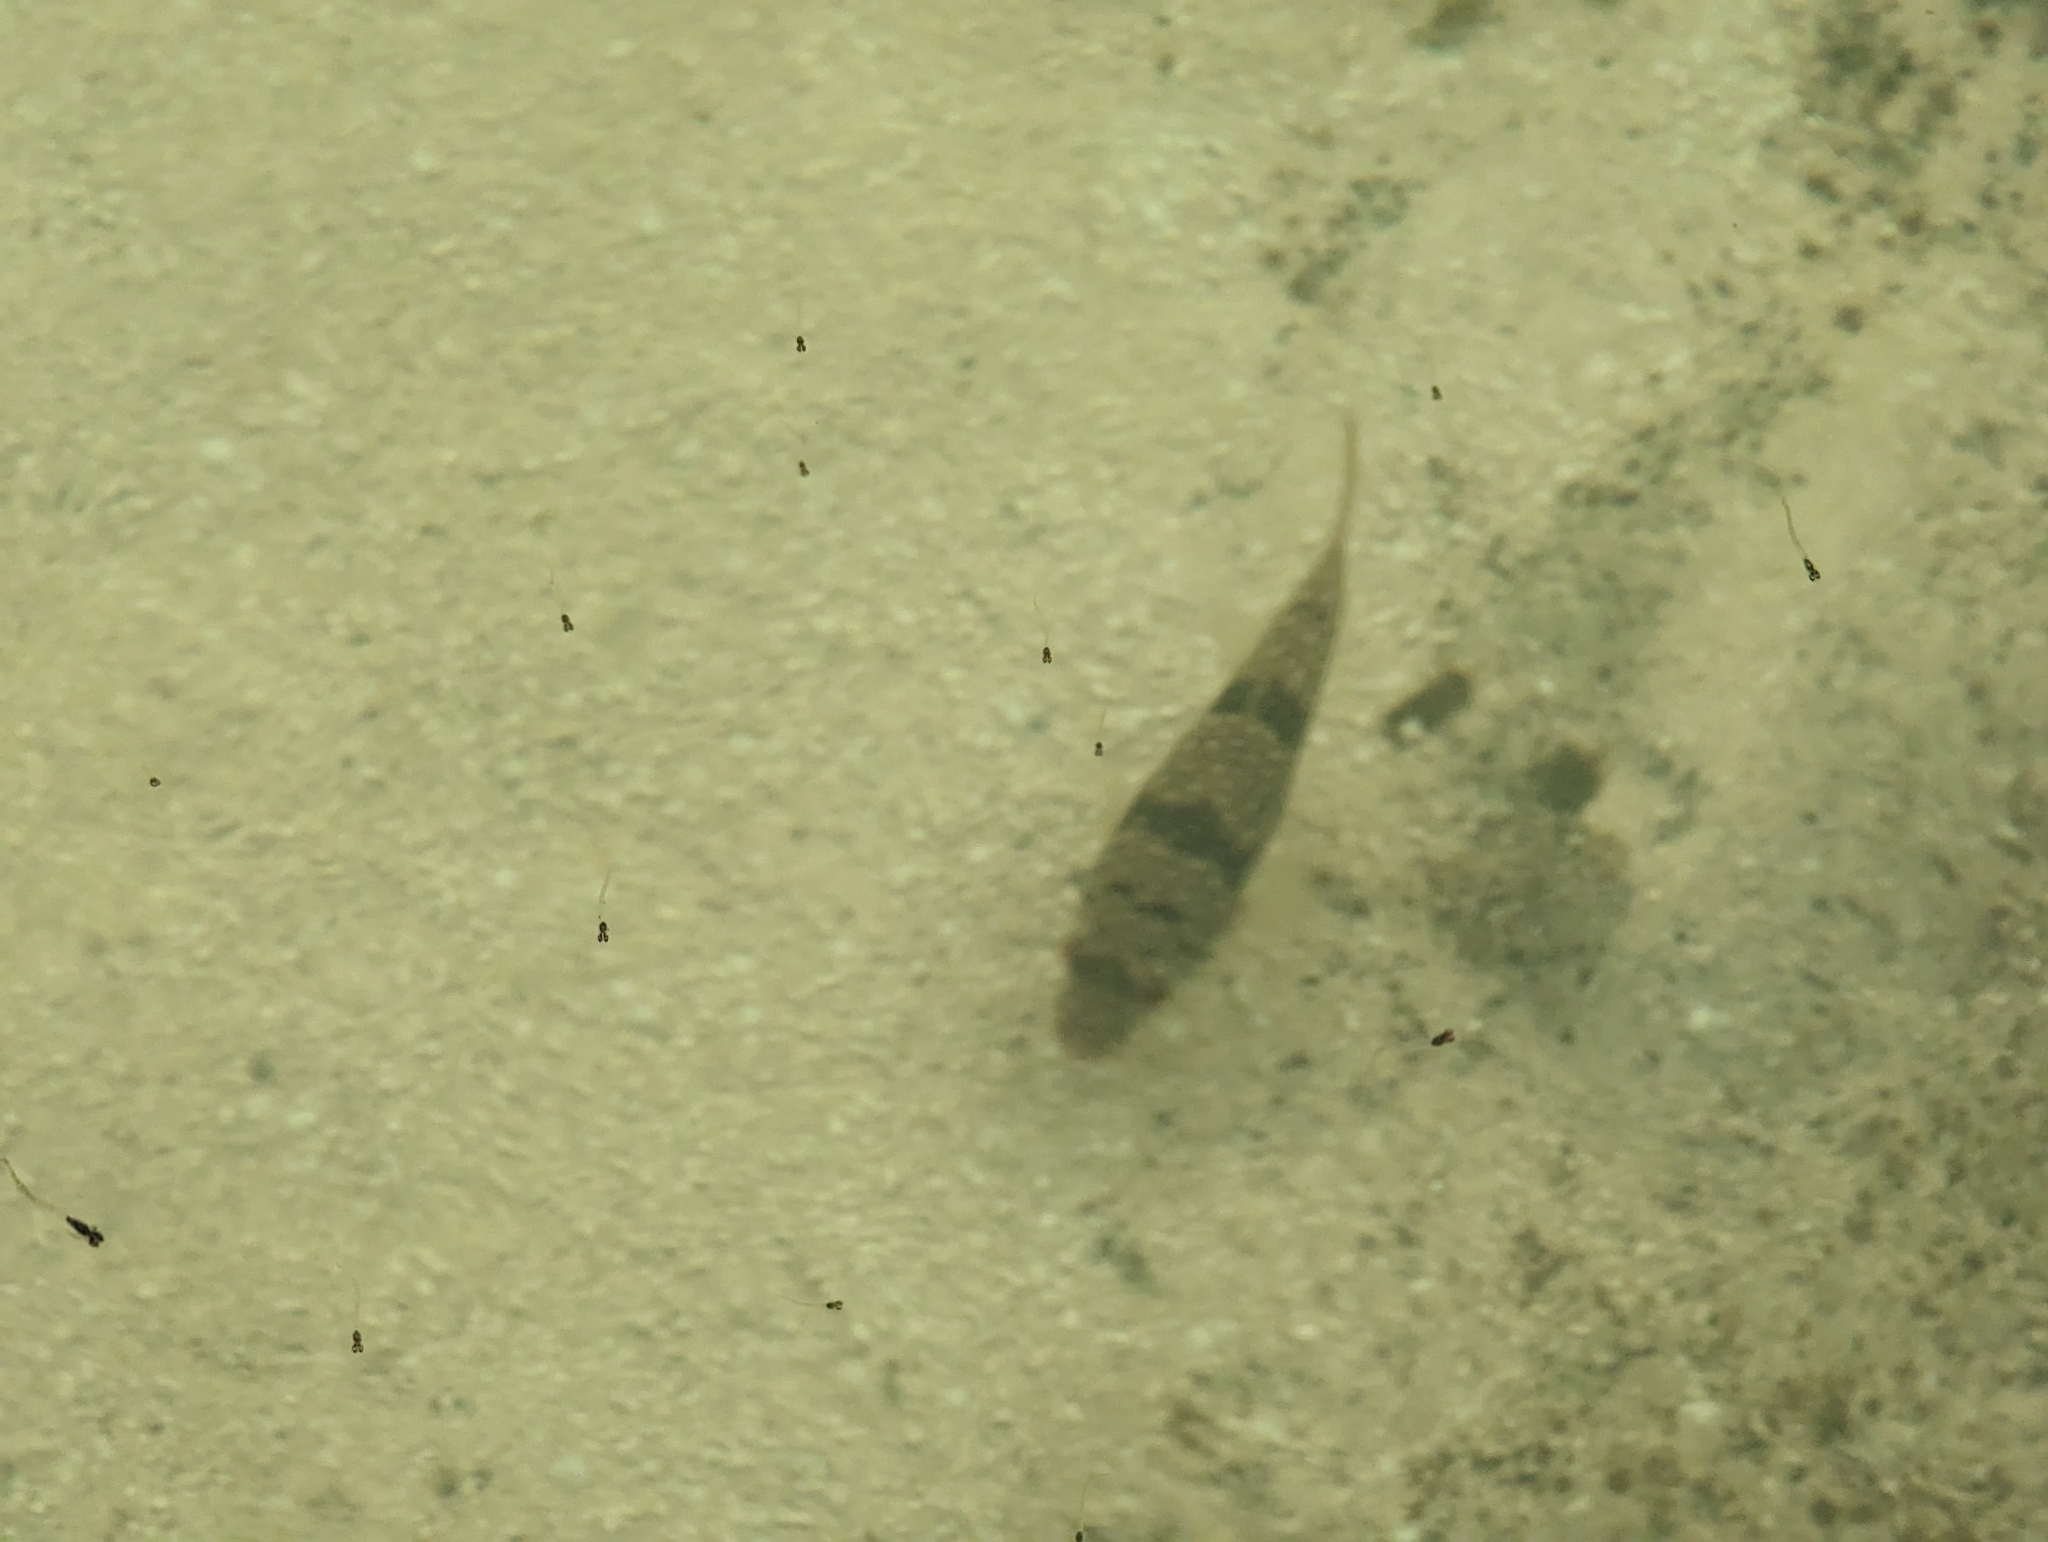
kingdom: Animalia
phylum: Chordata
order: Tetraodontiformes
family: Tetraodontidae
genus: Torquigener
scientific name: Torquigener pleurogramma
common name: Banded toadfish
